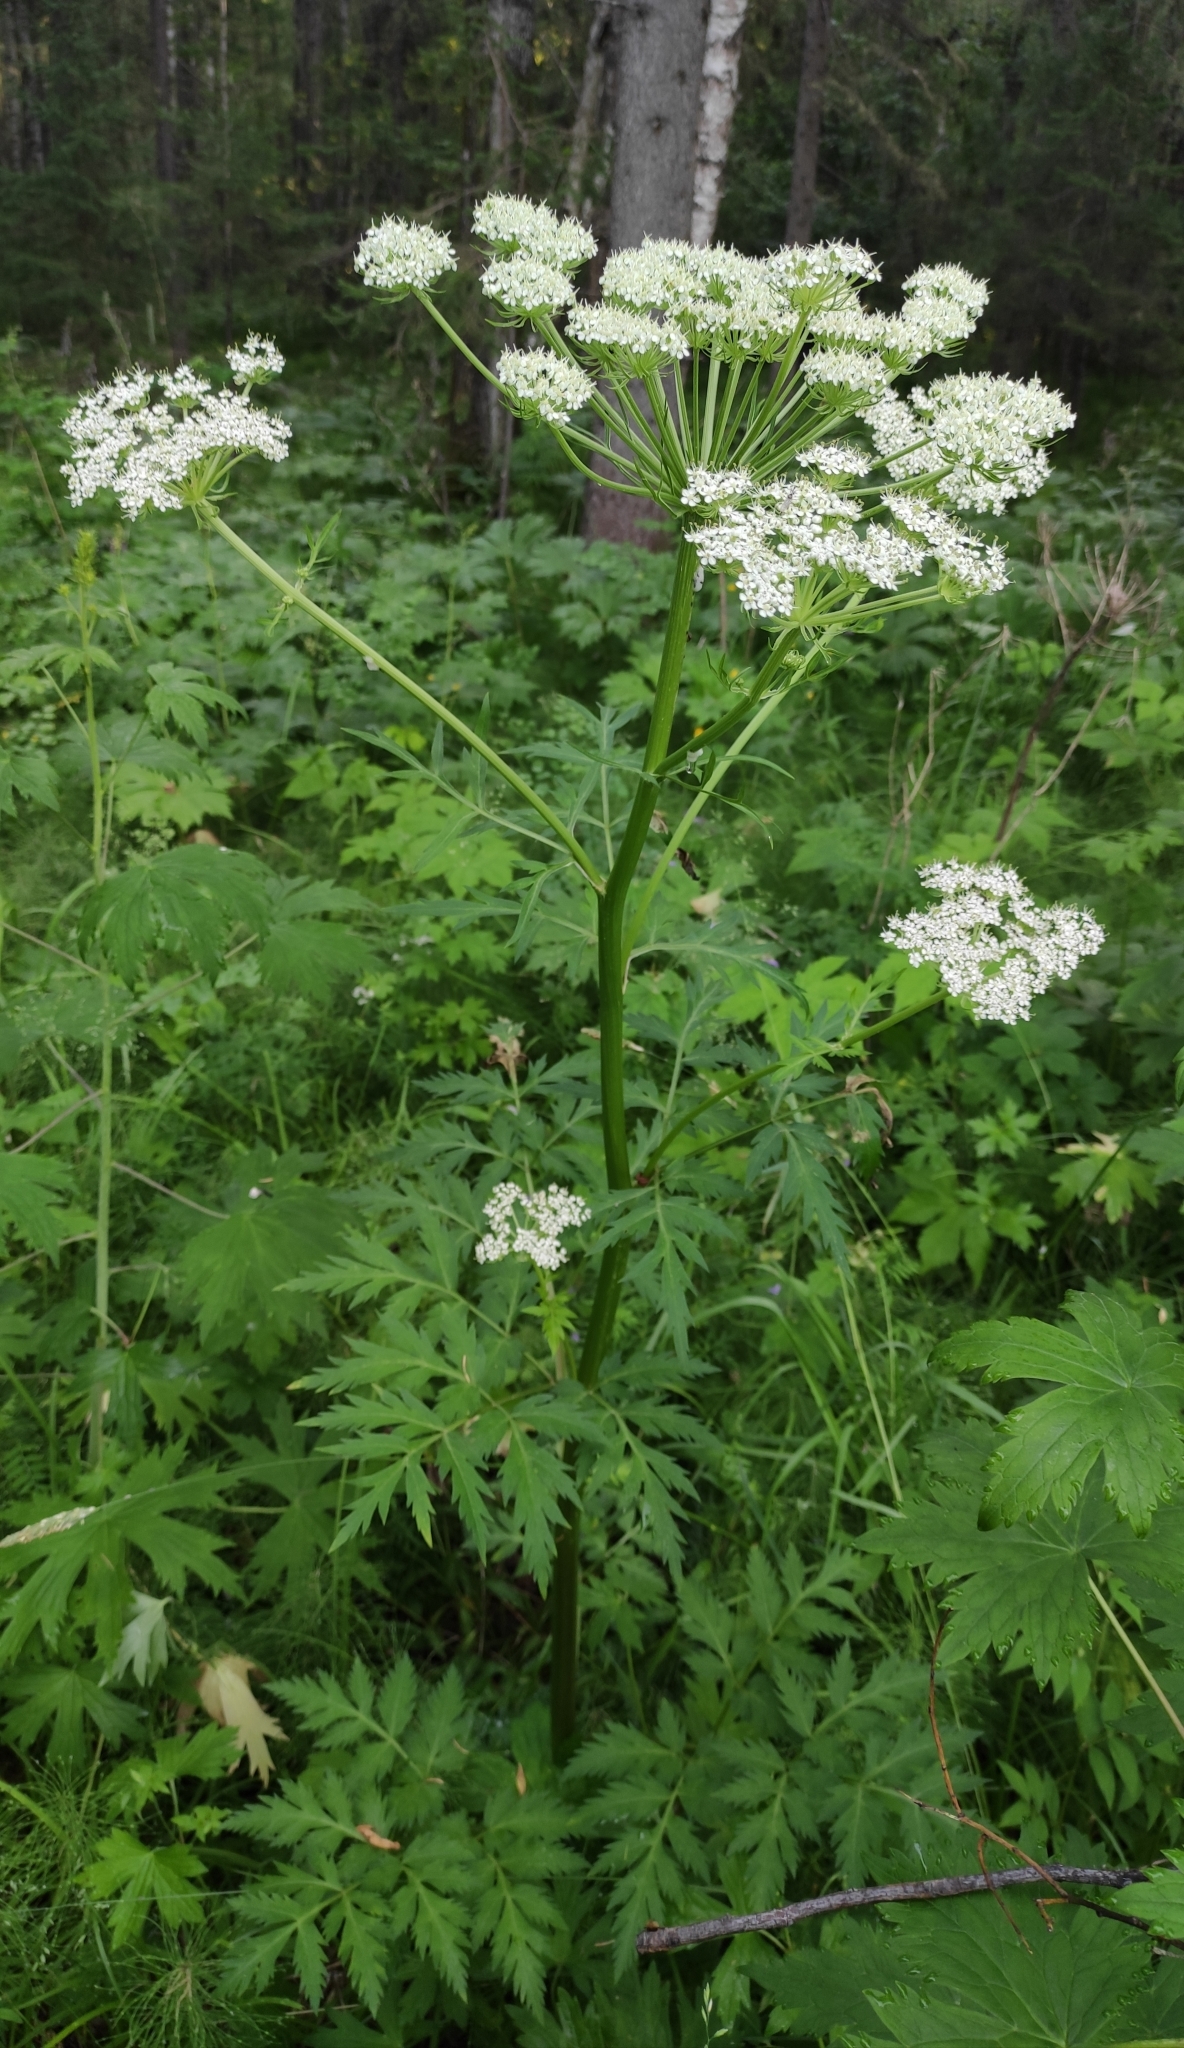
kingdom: Plantae
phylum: Tracheophyta
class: Magnoliopsida
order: Apiales
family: Apiaceae
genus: Pleurospermum
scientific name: Pleurospermum uralense
